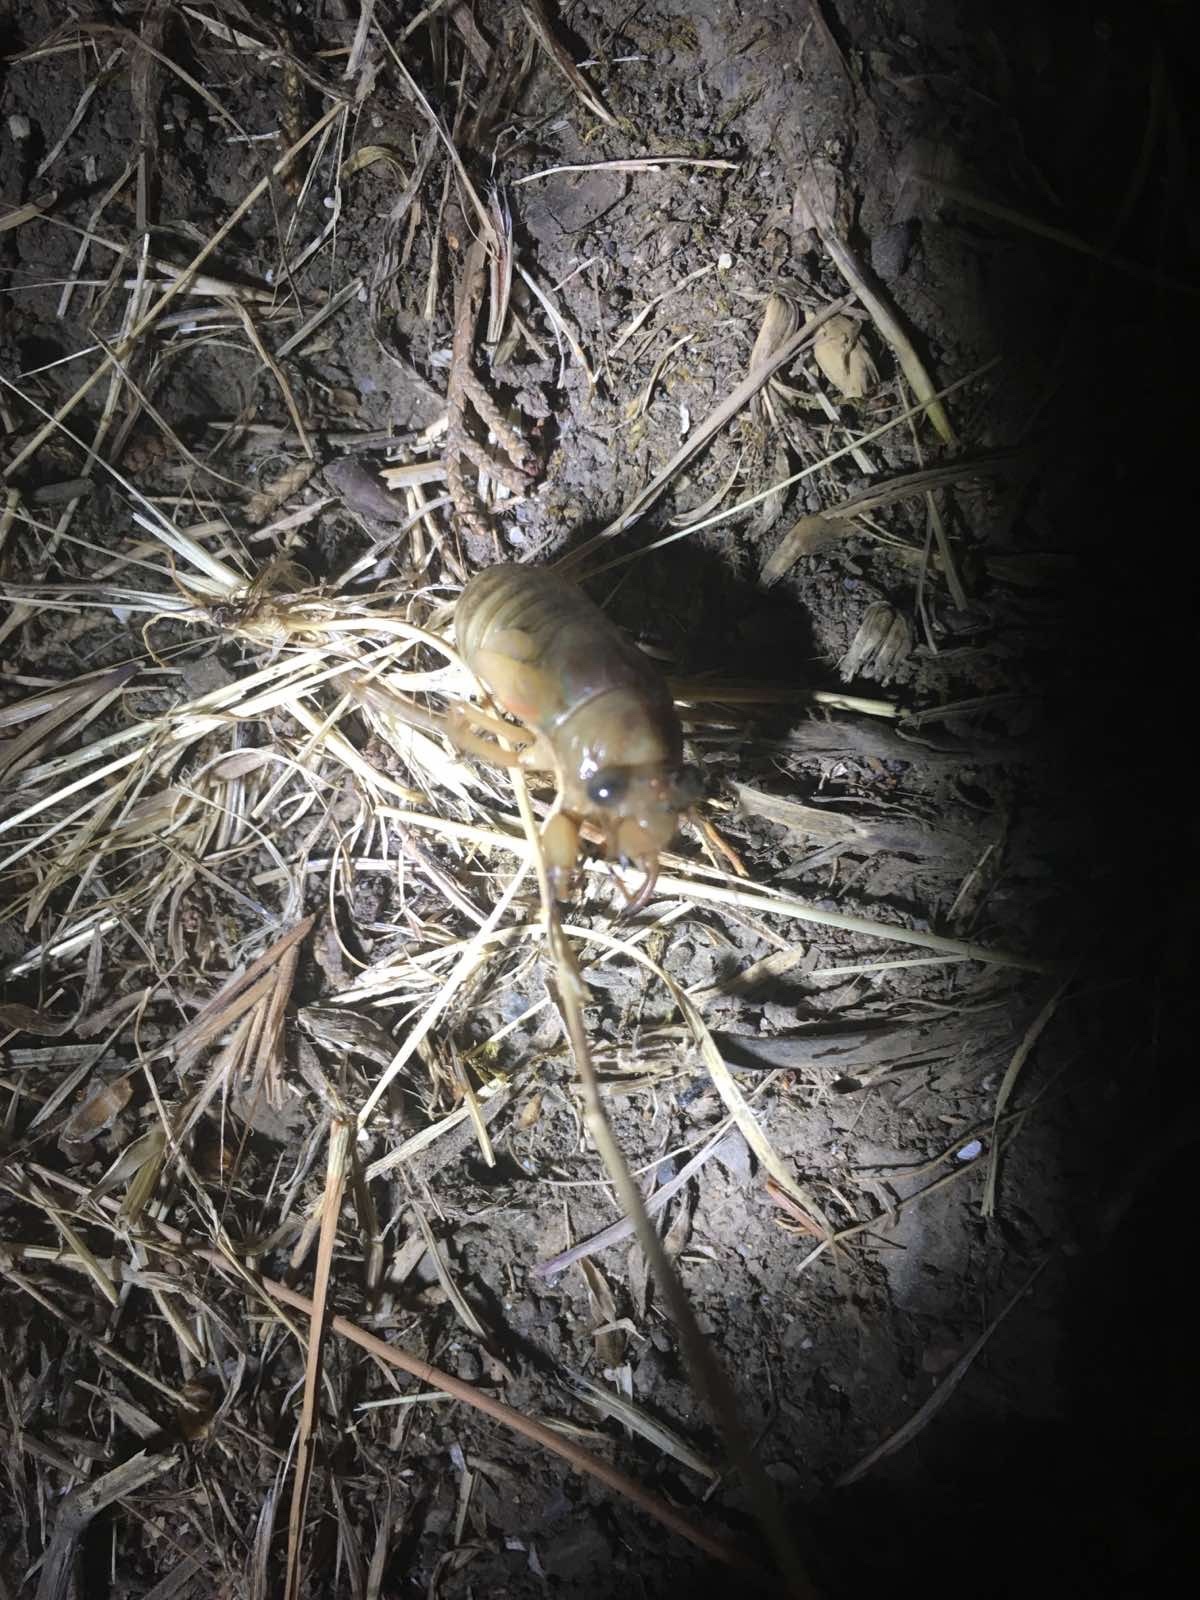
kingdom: Animalia
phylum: Arthropoda
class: Insecta
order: Hemiptera
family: Cicadidae
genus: Lyristes
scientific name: Lyristes plebejus
